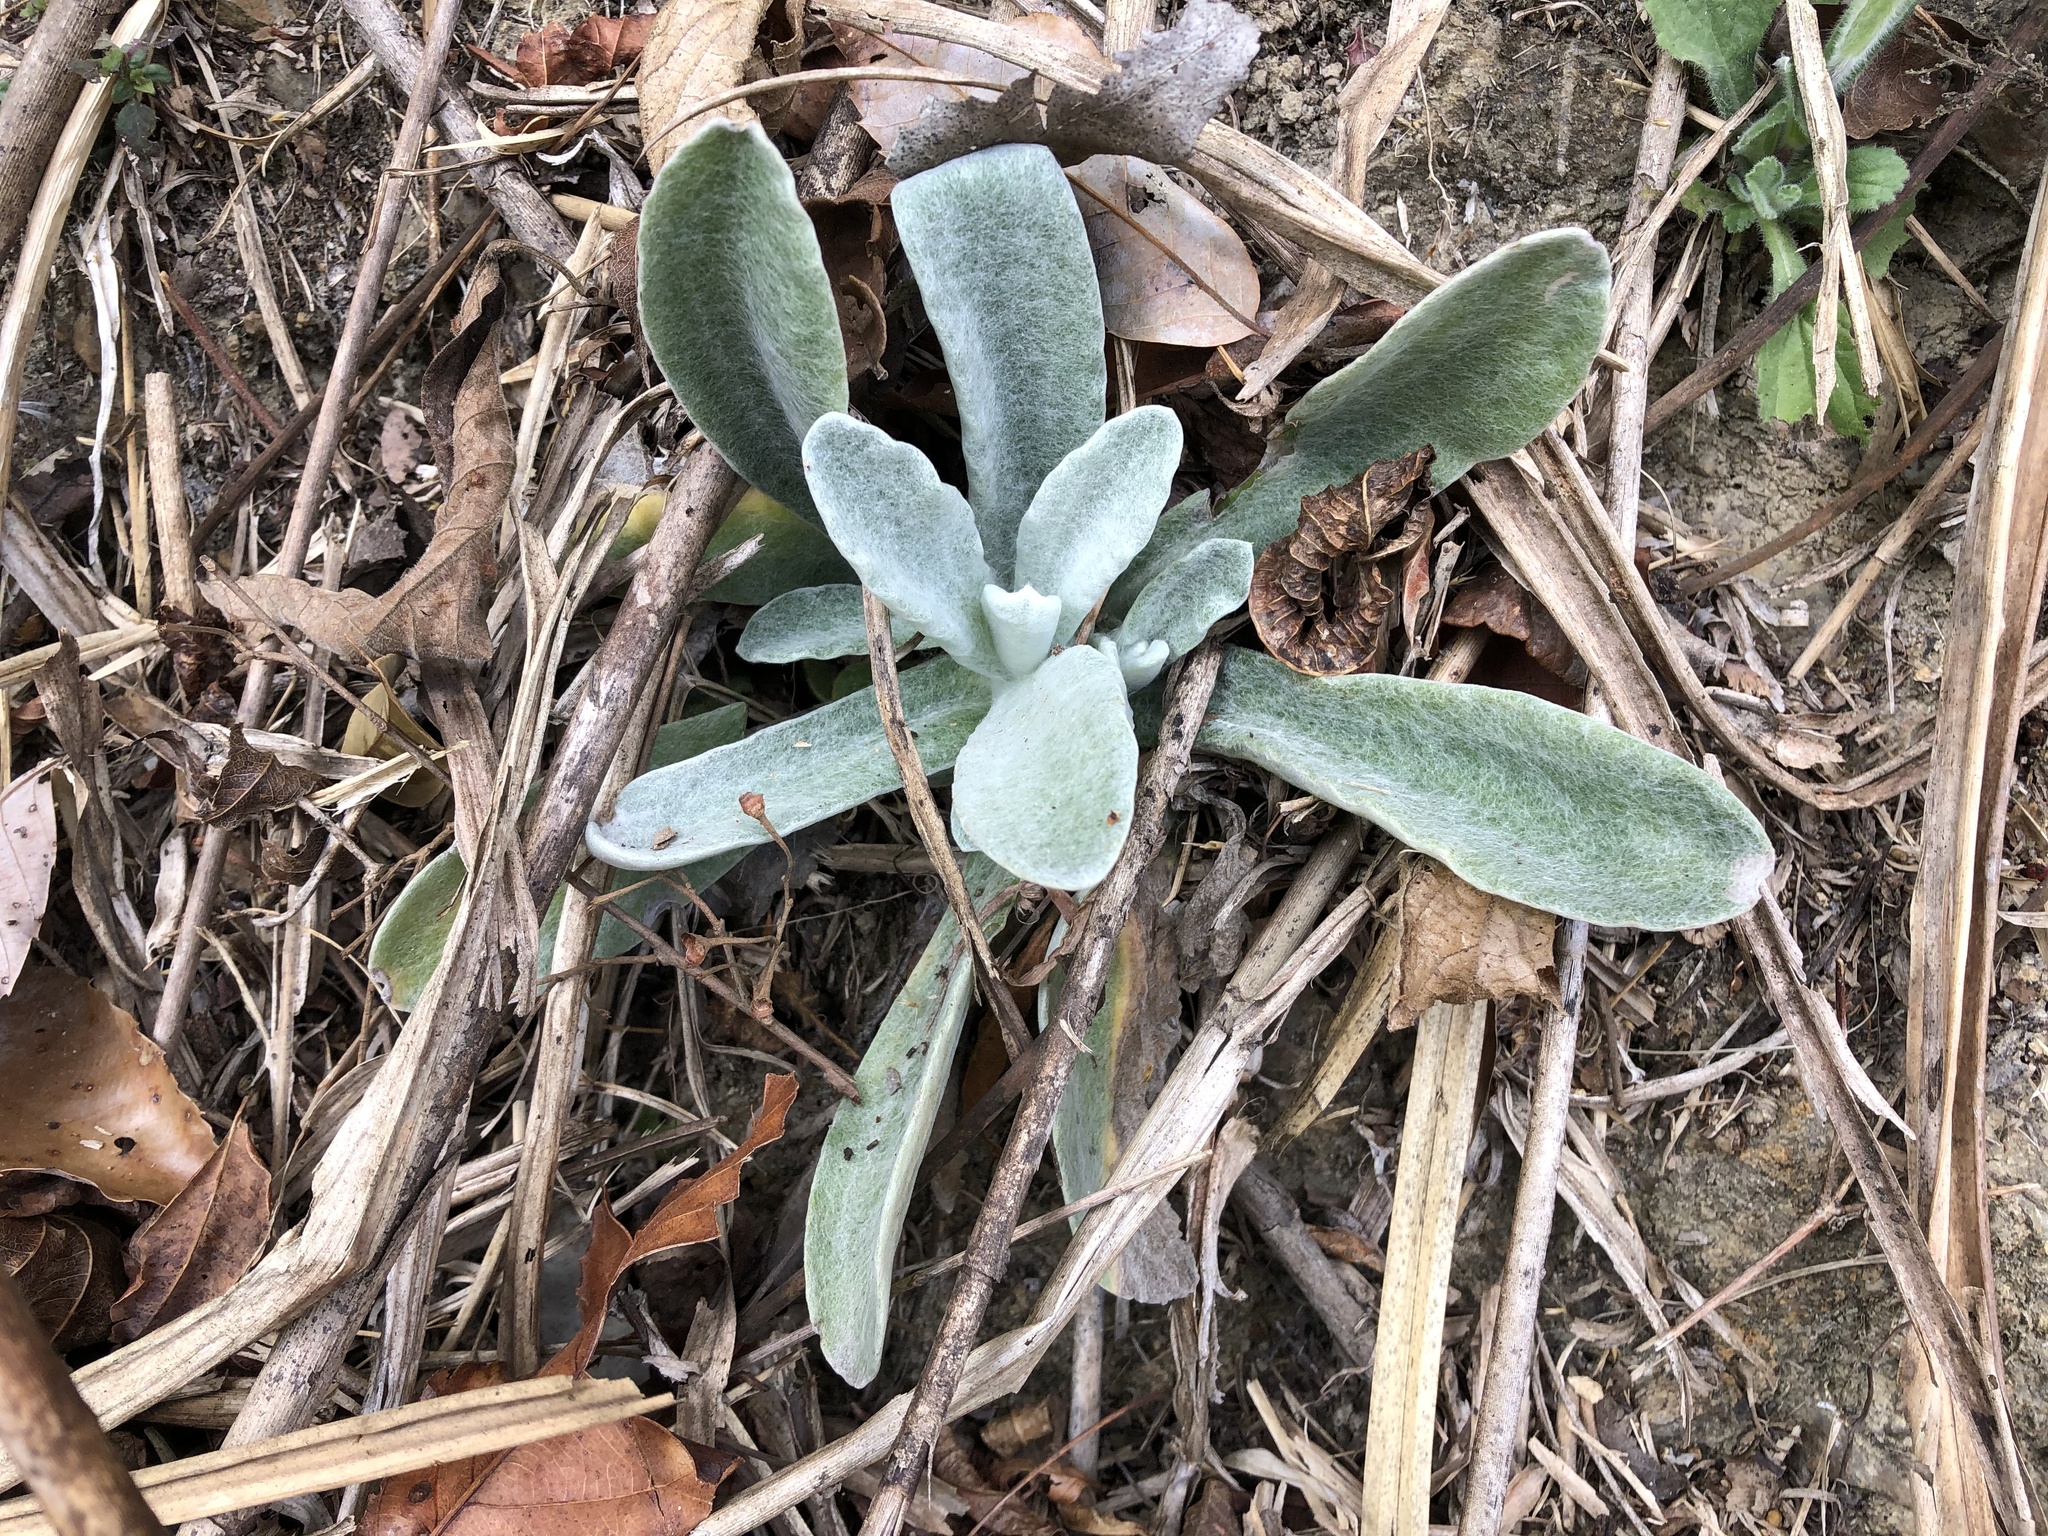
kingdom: Plantae
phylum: Tracheophyta
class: Magnoliopsida
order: Asterales
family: Asteraceae
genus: Pseudognaphalium
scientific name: Pseudognaphalium adnatum
